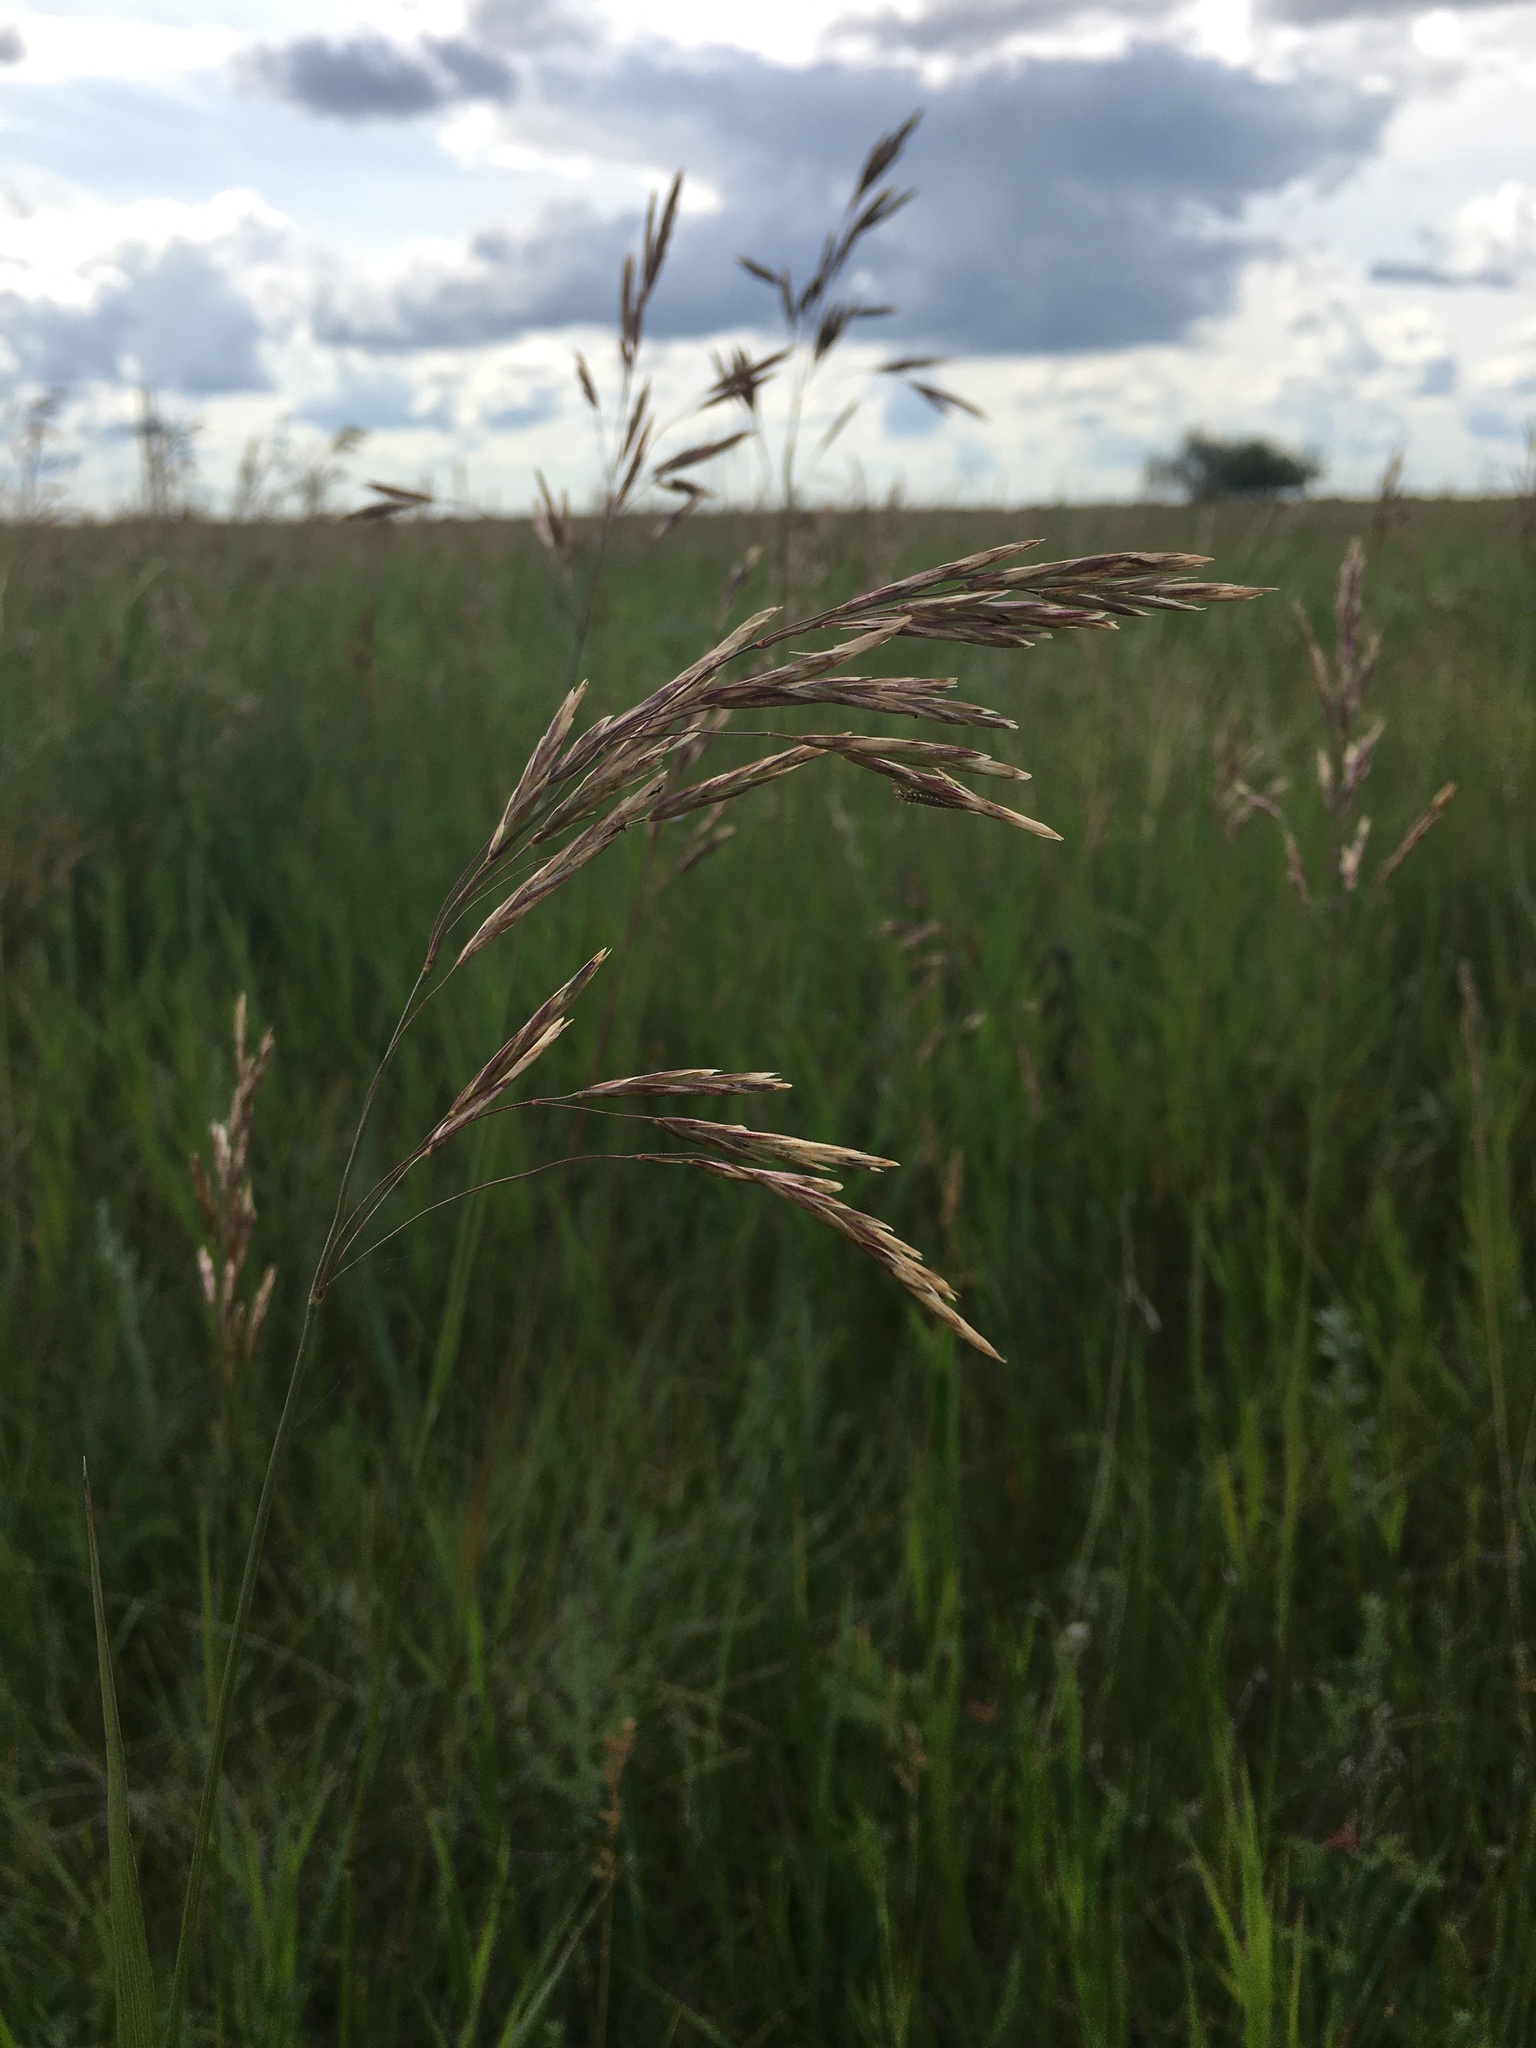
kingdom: Plantae
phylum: Tracheophyta
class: Liliopsida
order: Poales
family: Poaceae
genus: Bromus
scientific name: Bromus inermis
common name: Smooth brome
